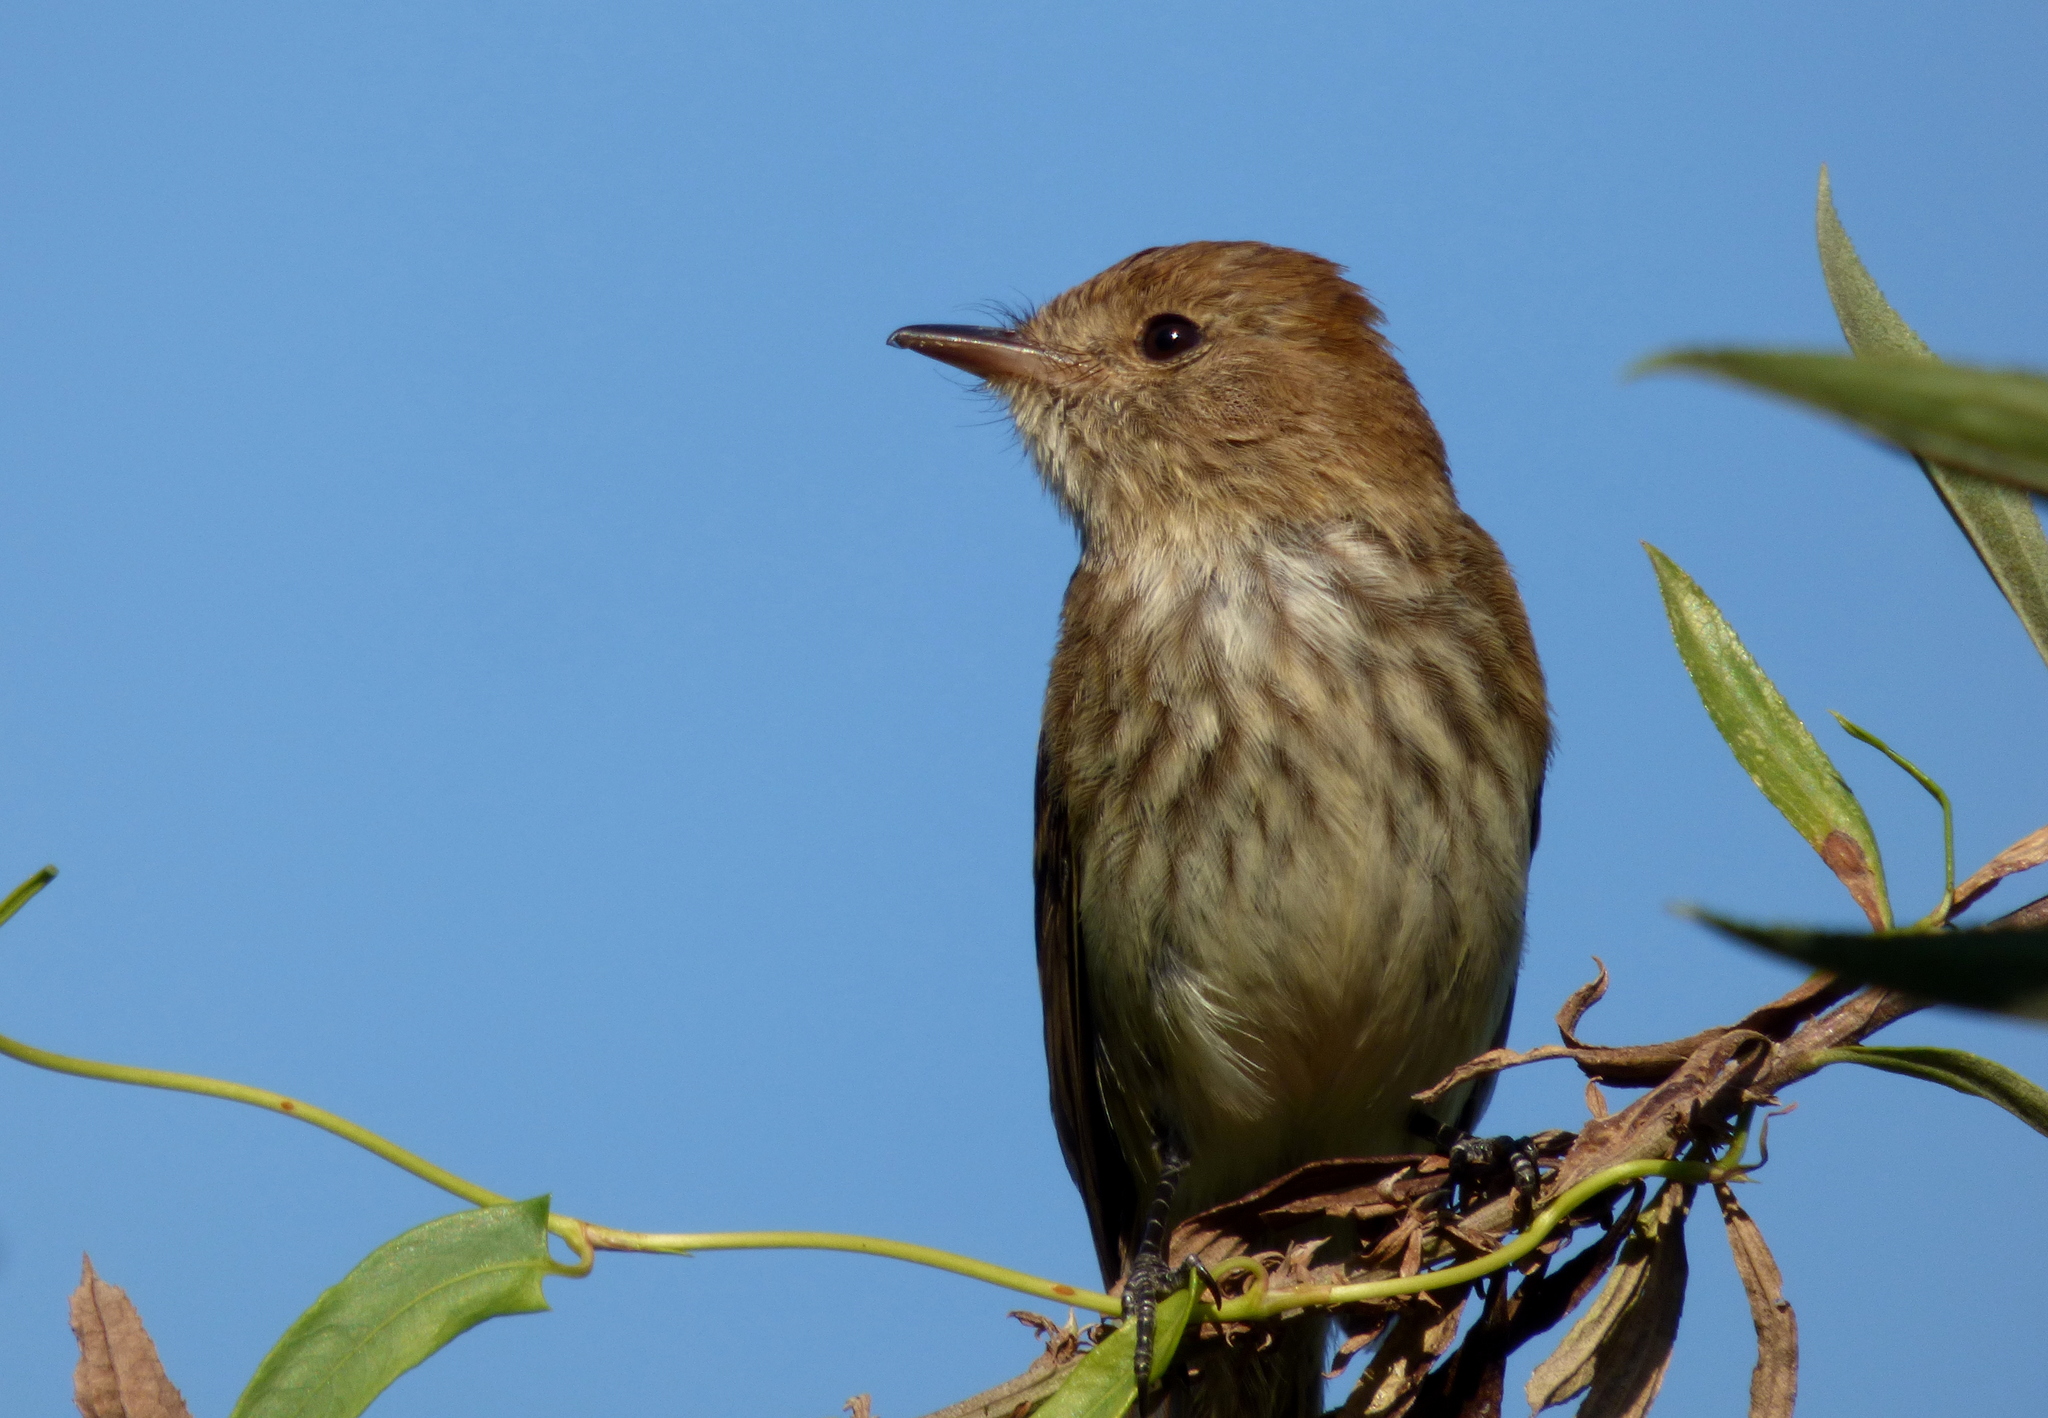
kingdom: Animalia
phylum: Chordata
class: Aves
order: Passeriformes
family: Tyrannidae
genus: Myiophobus
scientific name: Myiophobus fasciatus
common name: Bran-colored flycatcher
